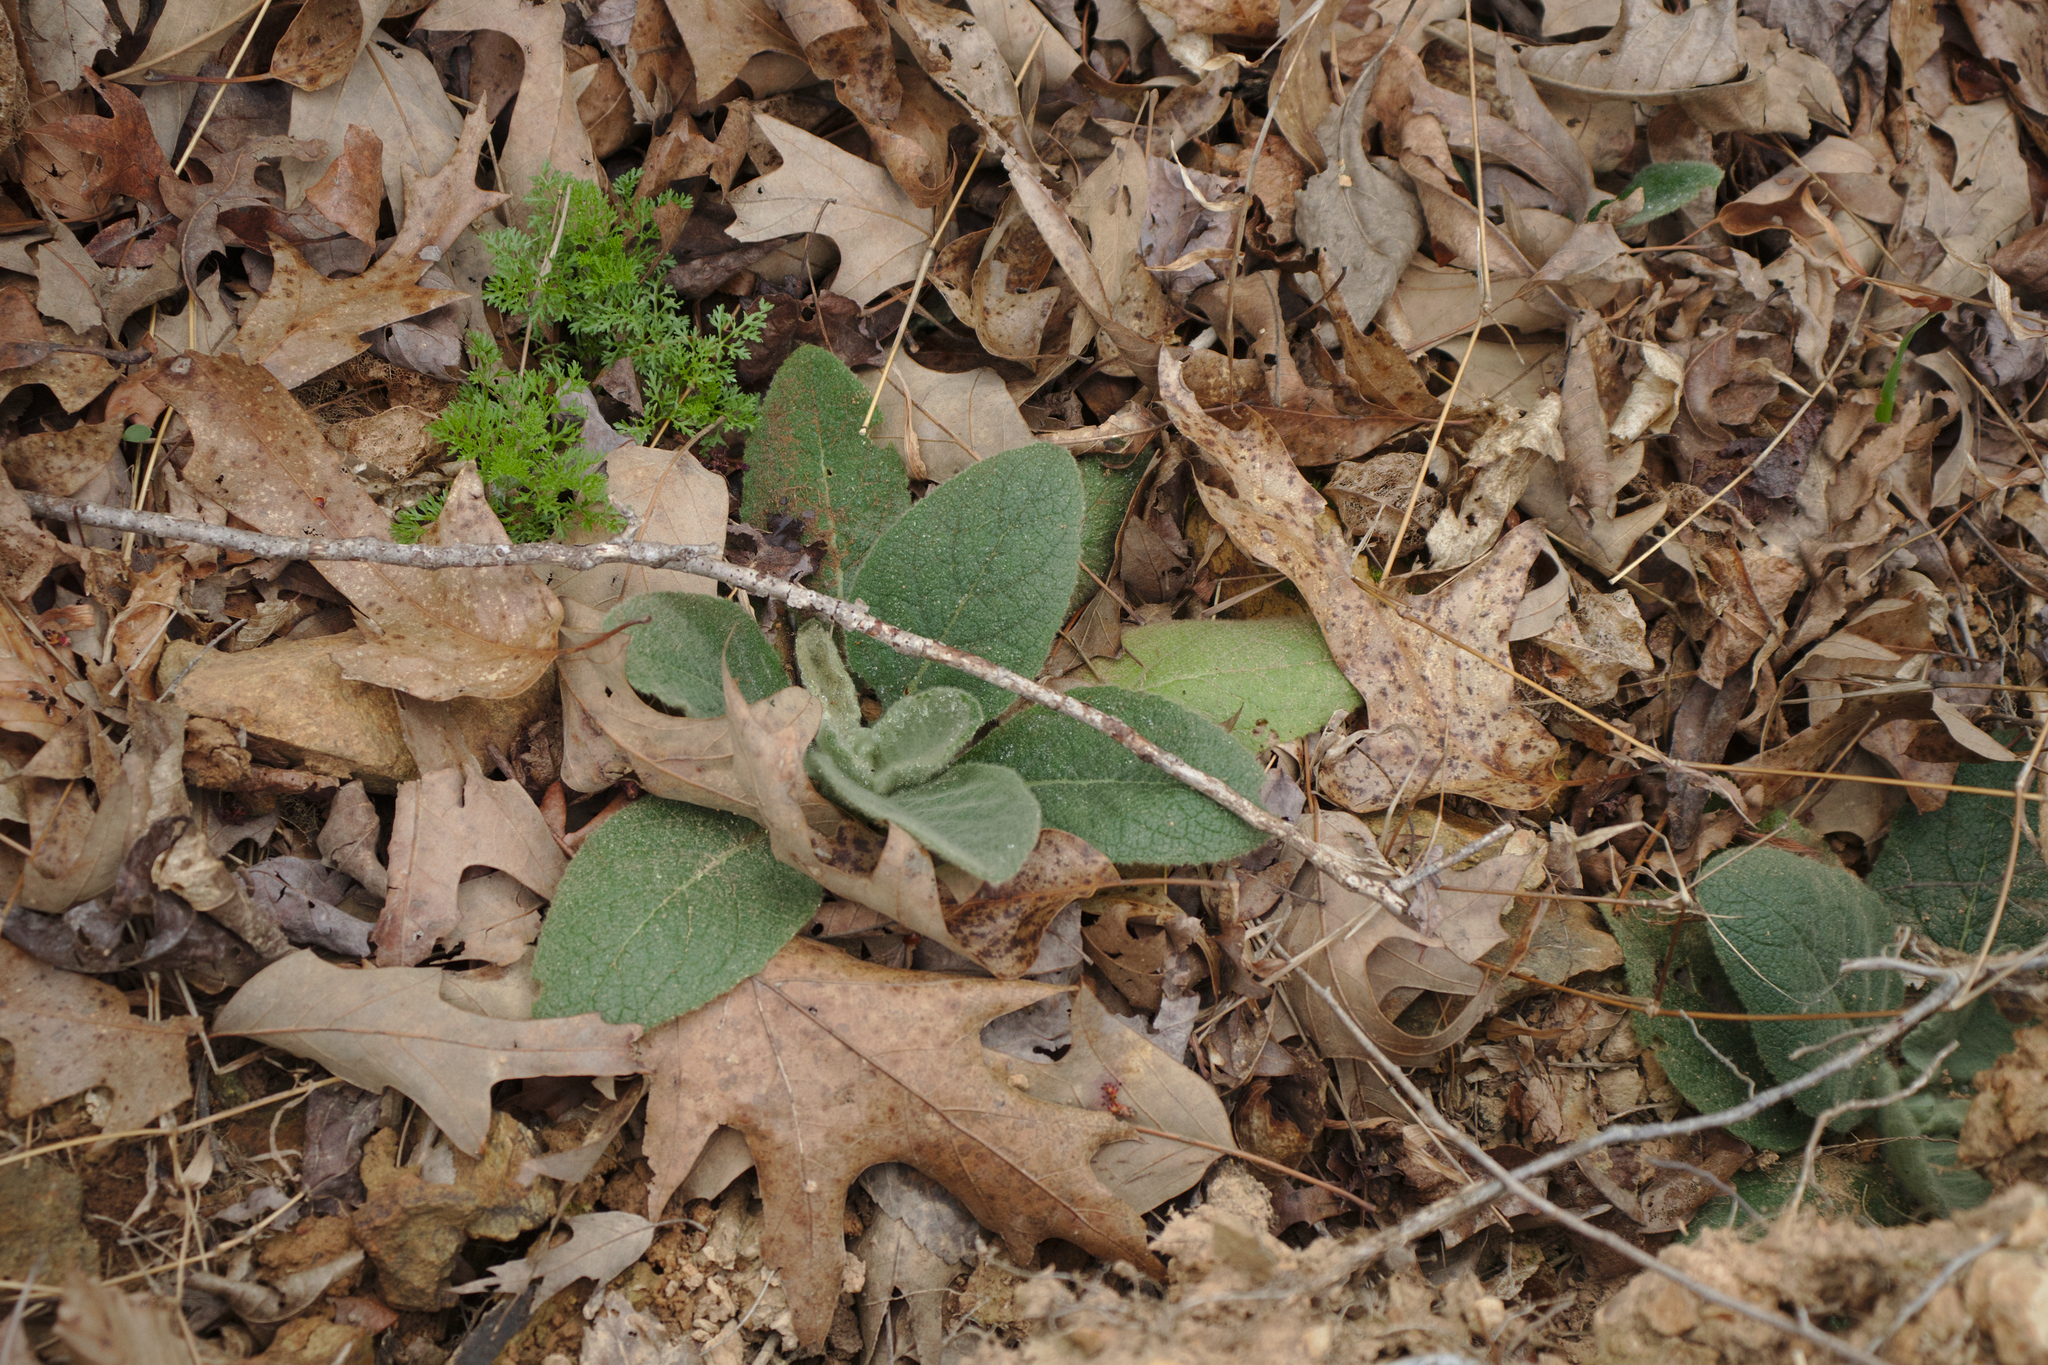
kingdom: Plantae
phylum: Tracheophyta
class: Magnoliopsida
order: Lamiales
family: Scrophulariaceae
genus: Verbascum
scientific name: Verbascum thapsus
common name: Common mullein
